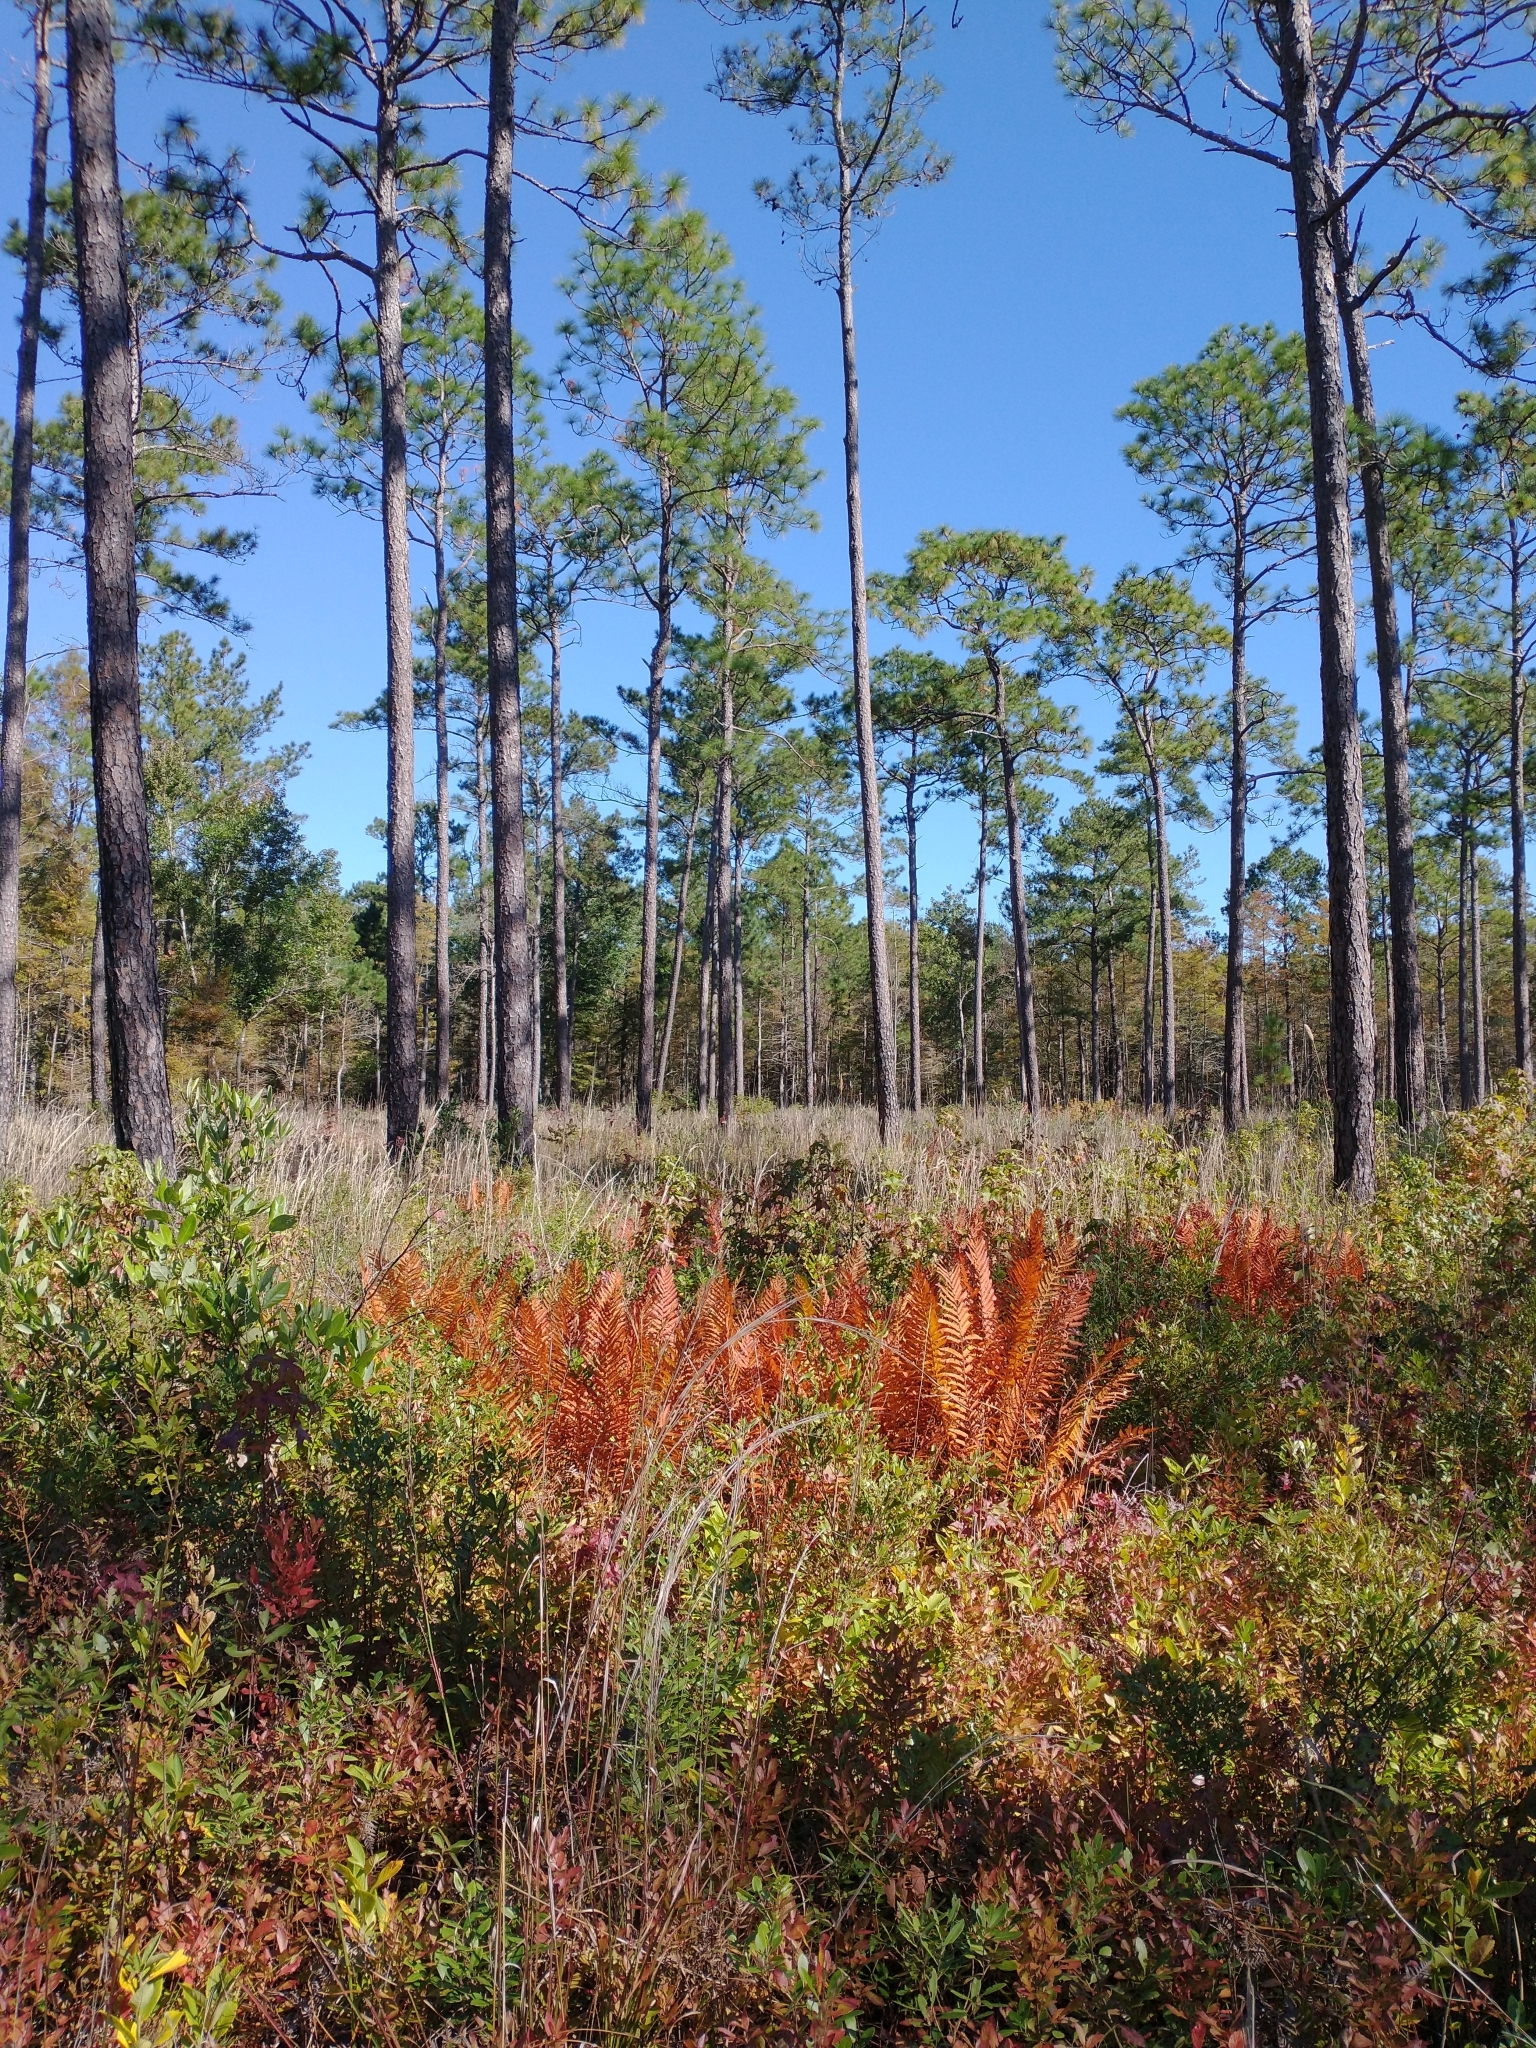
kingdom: Plantae
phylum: Tracheophyta
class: Pinopsida
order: Pinales
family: Pinaceae
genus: Pinus
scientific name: Pinus palustris
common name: Longleaf pine
